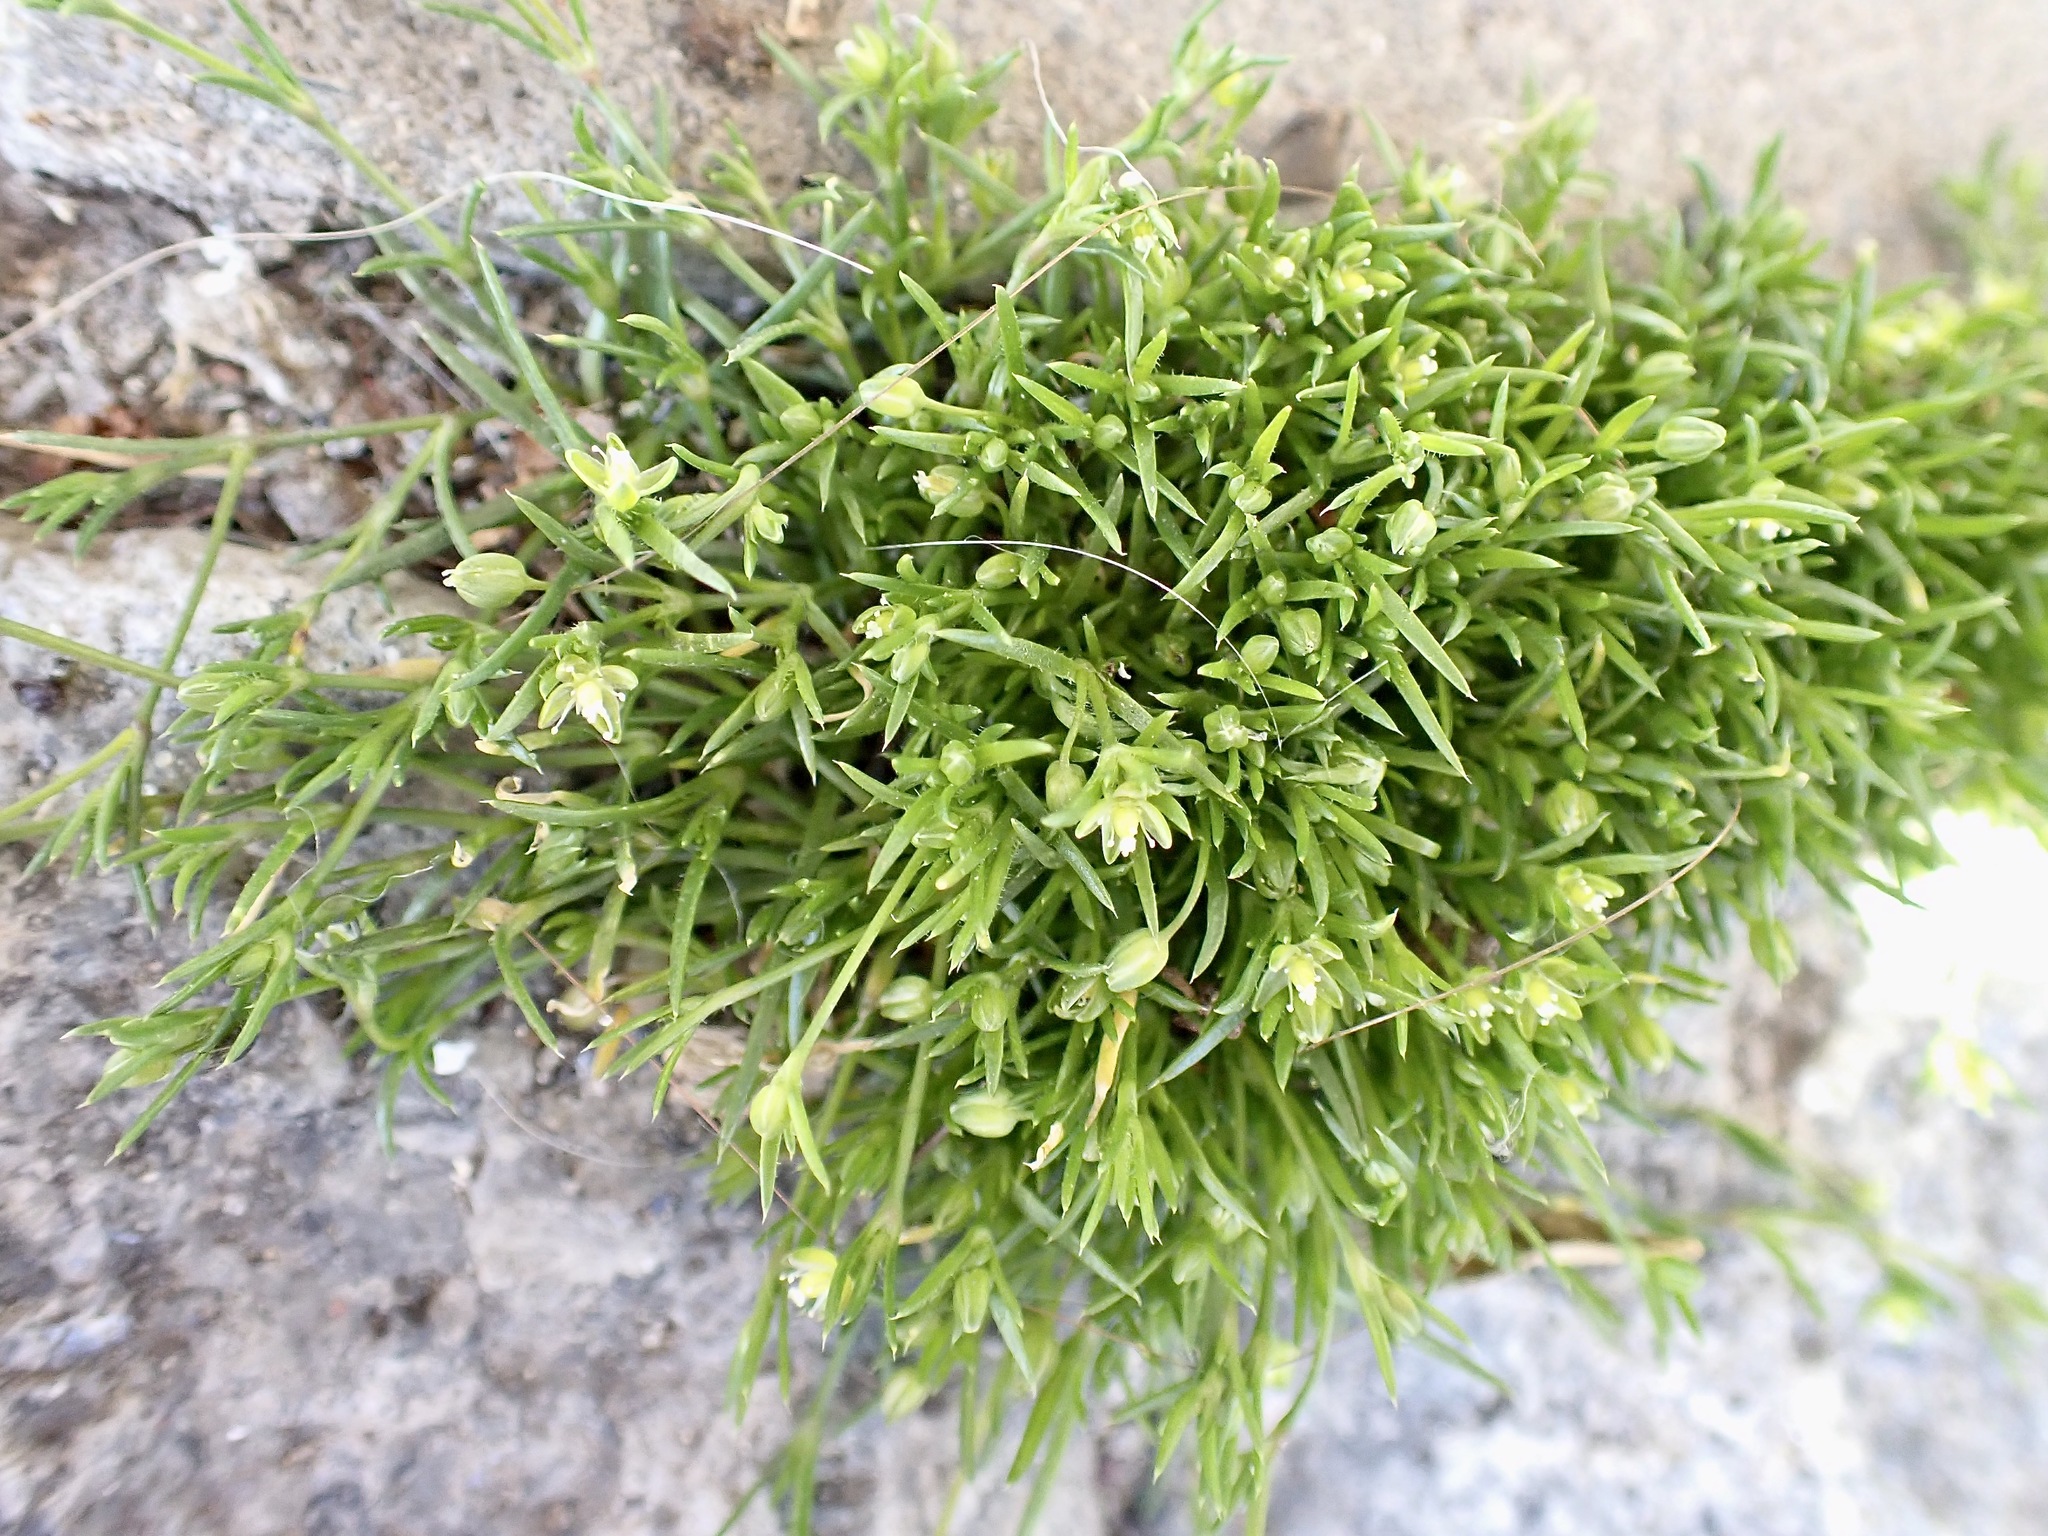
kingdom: Plantae
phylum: Tracheophyta
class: Magnoliopsida
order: Caryophyllales
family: Caryophyllaceae
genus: Sagina
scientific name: Sagina procumbens
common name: Procumbent pearlwort
